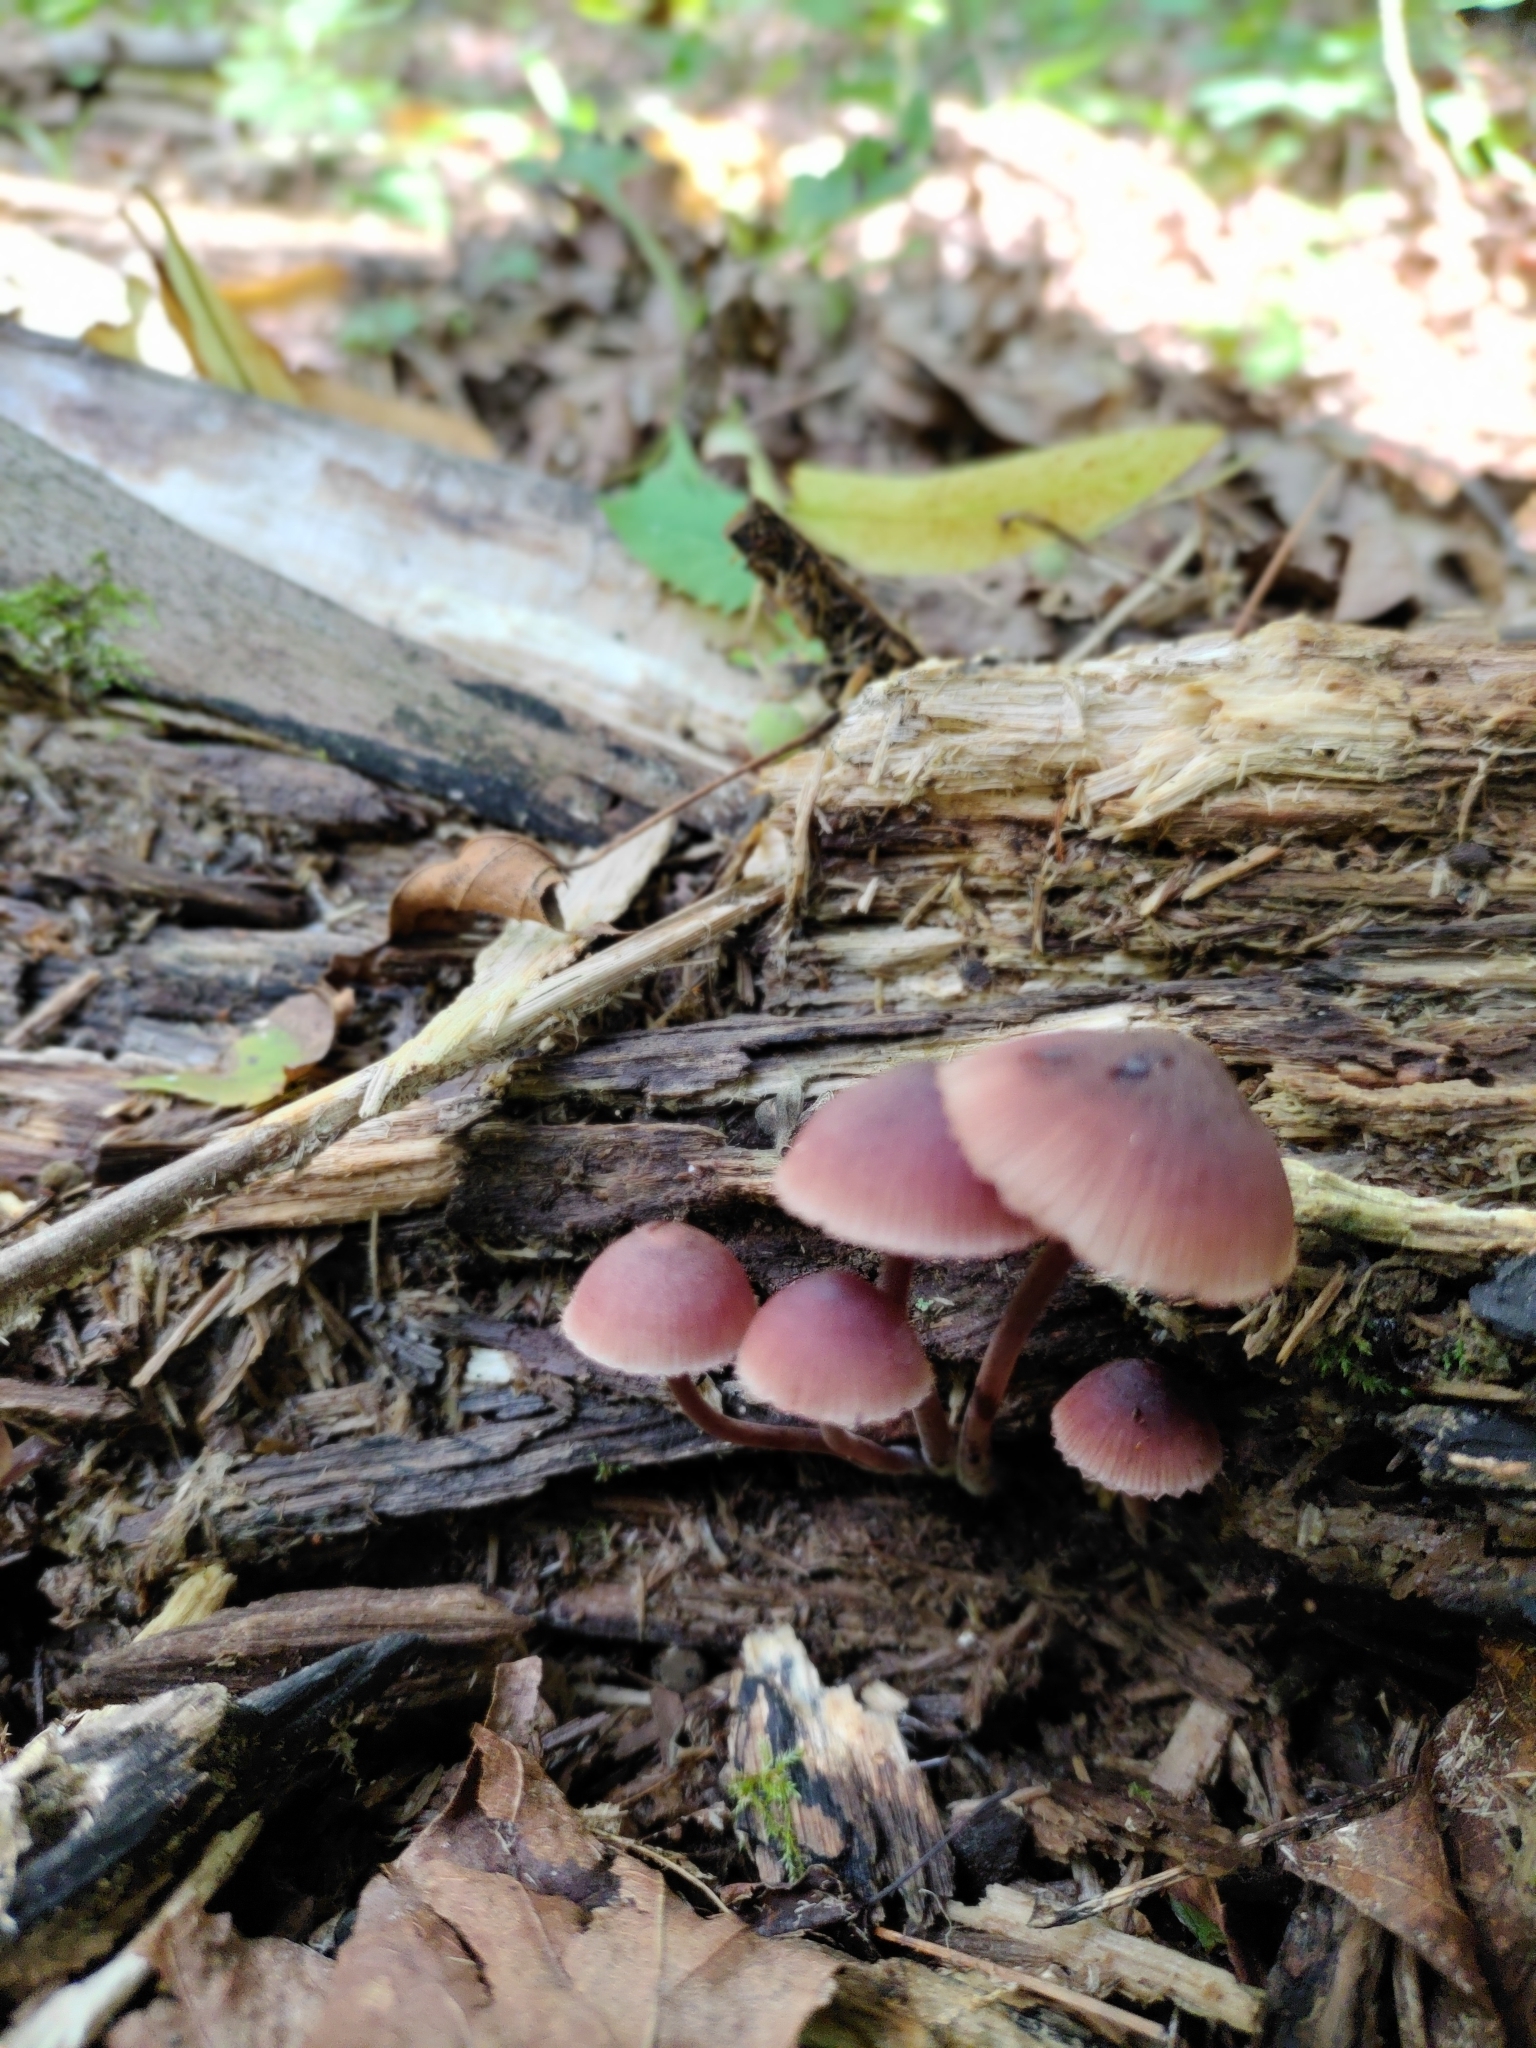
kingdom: Fungi
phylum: Basidiomycota
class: Agaricomycetes
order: Agaricales
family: Mycenaceae
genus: Mycena
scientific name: Mycena haematopus
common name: Burgundydrop bonnet
